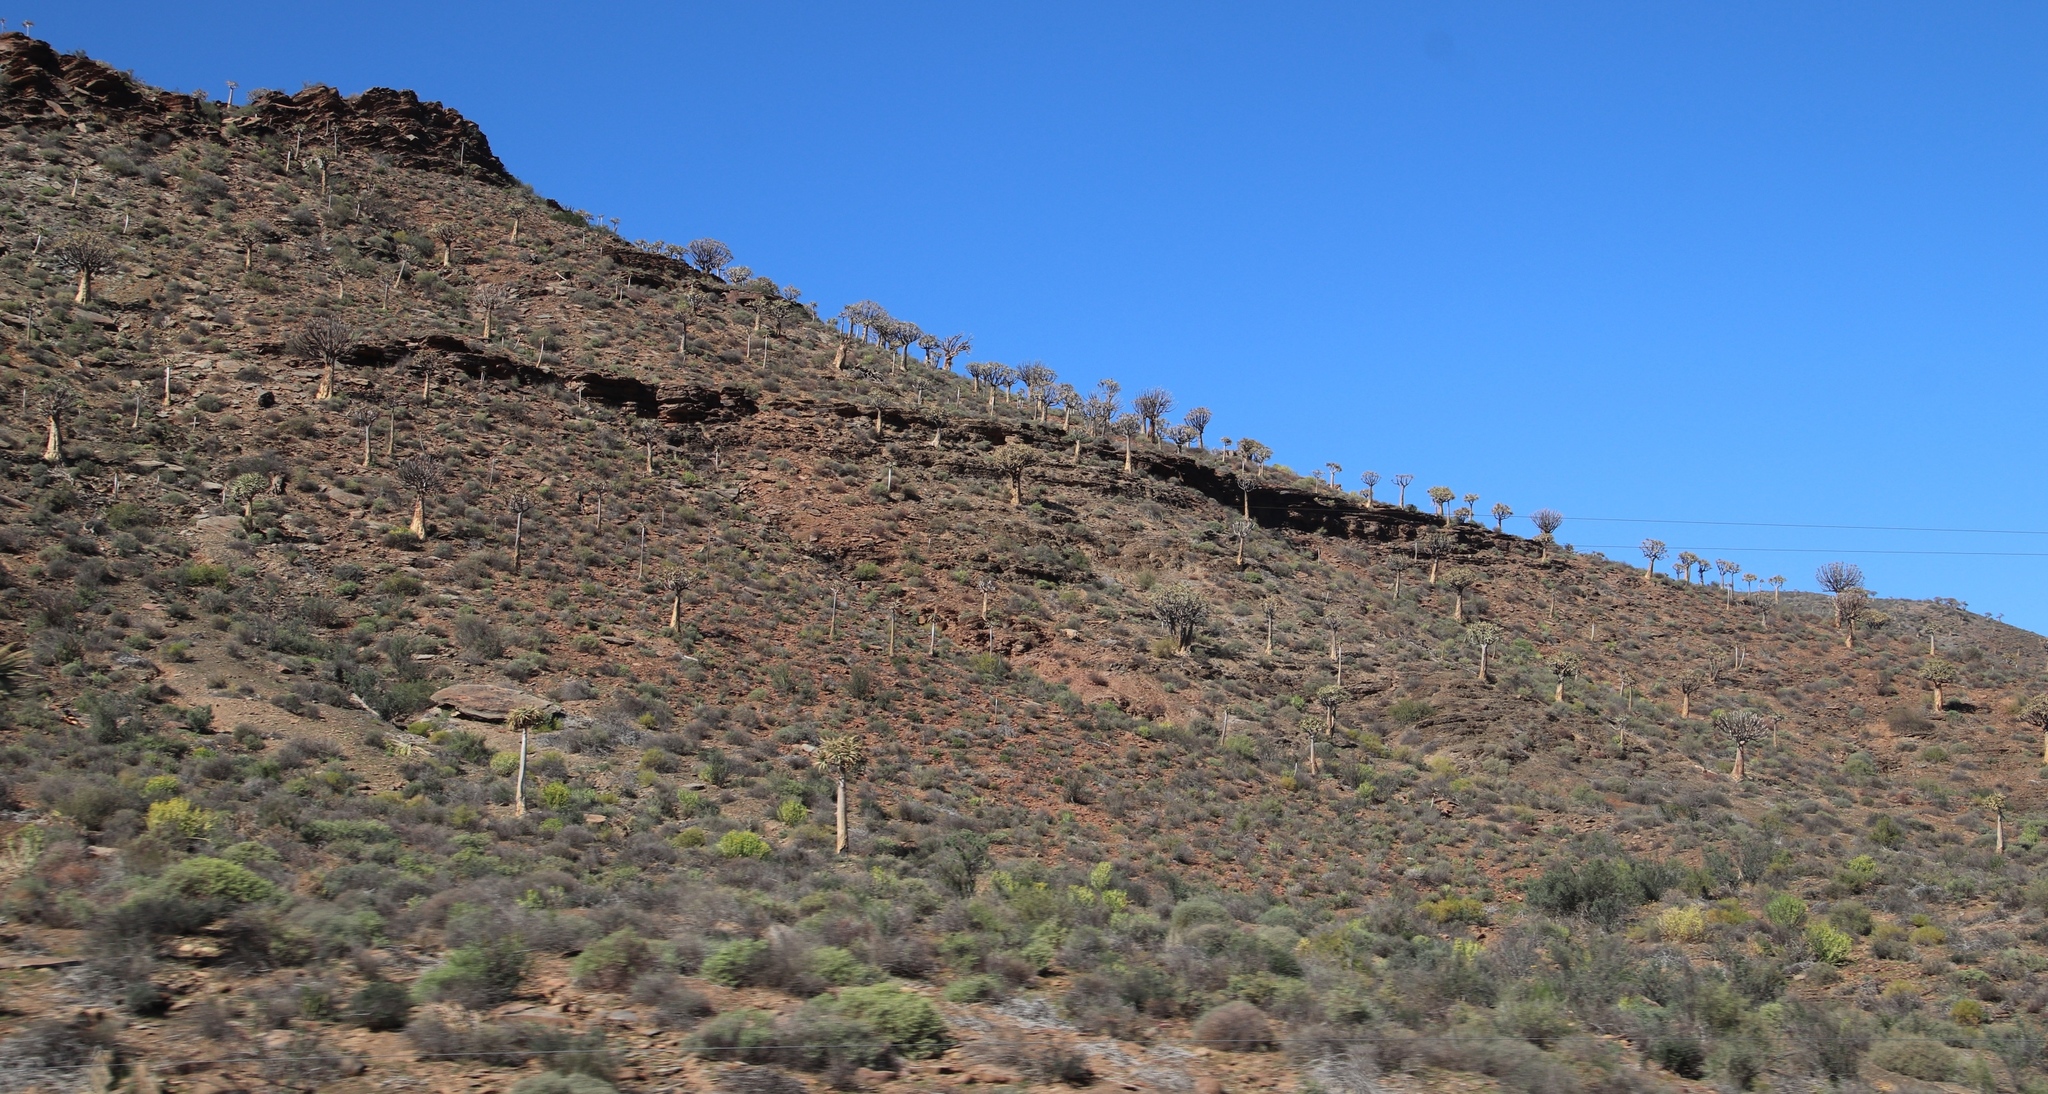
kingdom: Plantae
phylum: Tracheophyta
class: Liliopsida
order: Asparagales
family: Asphodelaceae
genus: Aloidendron
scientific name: Aloidendron dichotomum
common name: Quiver tree
